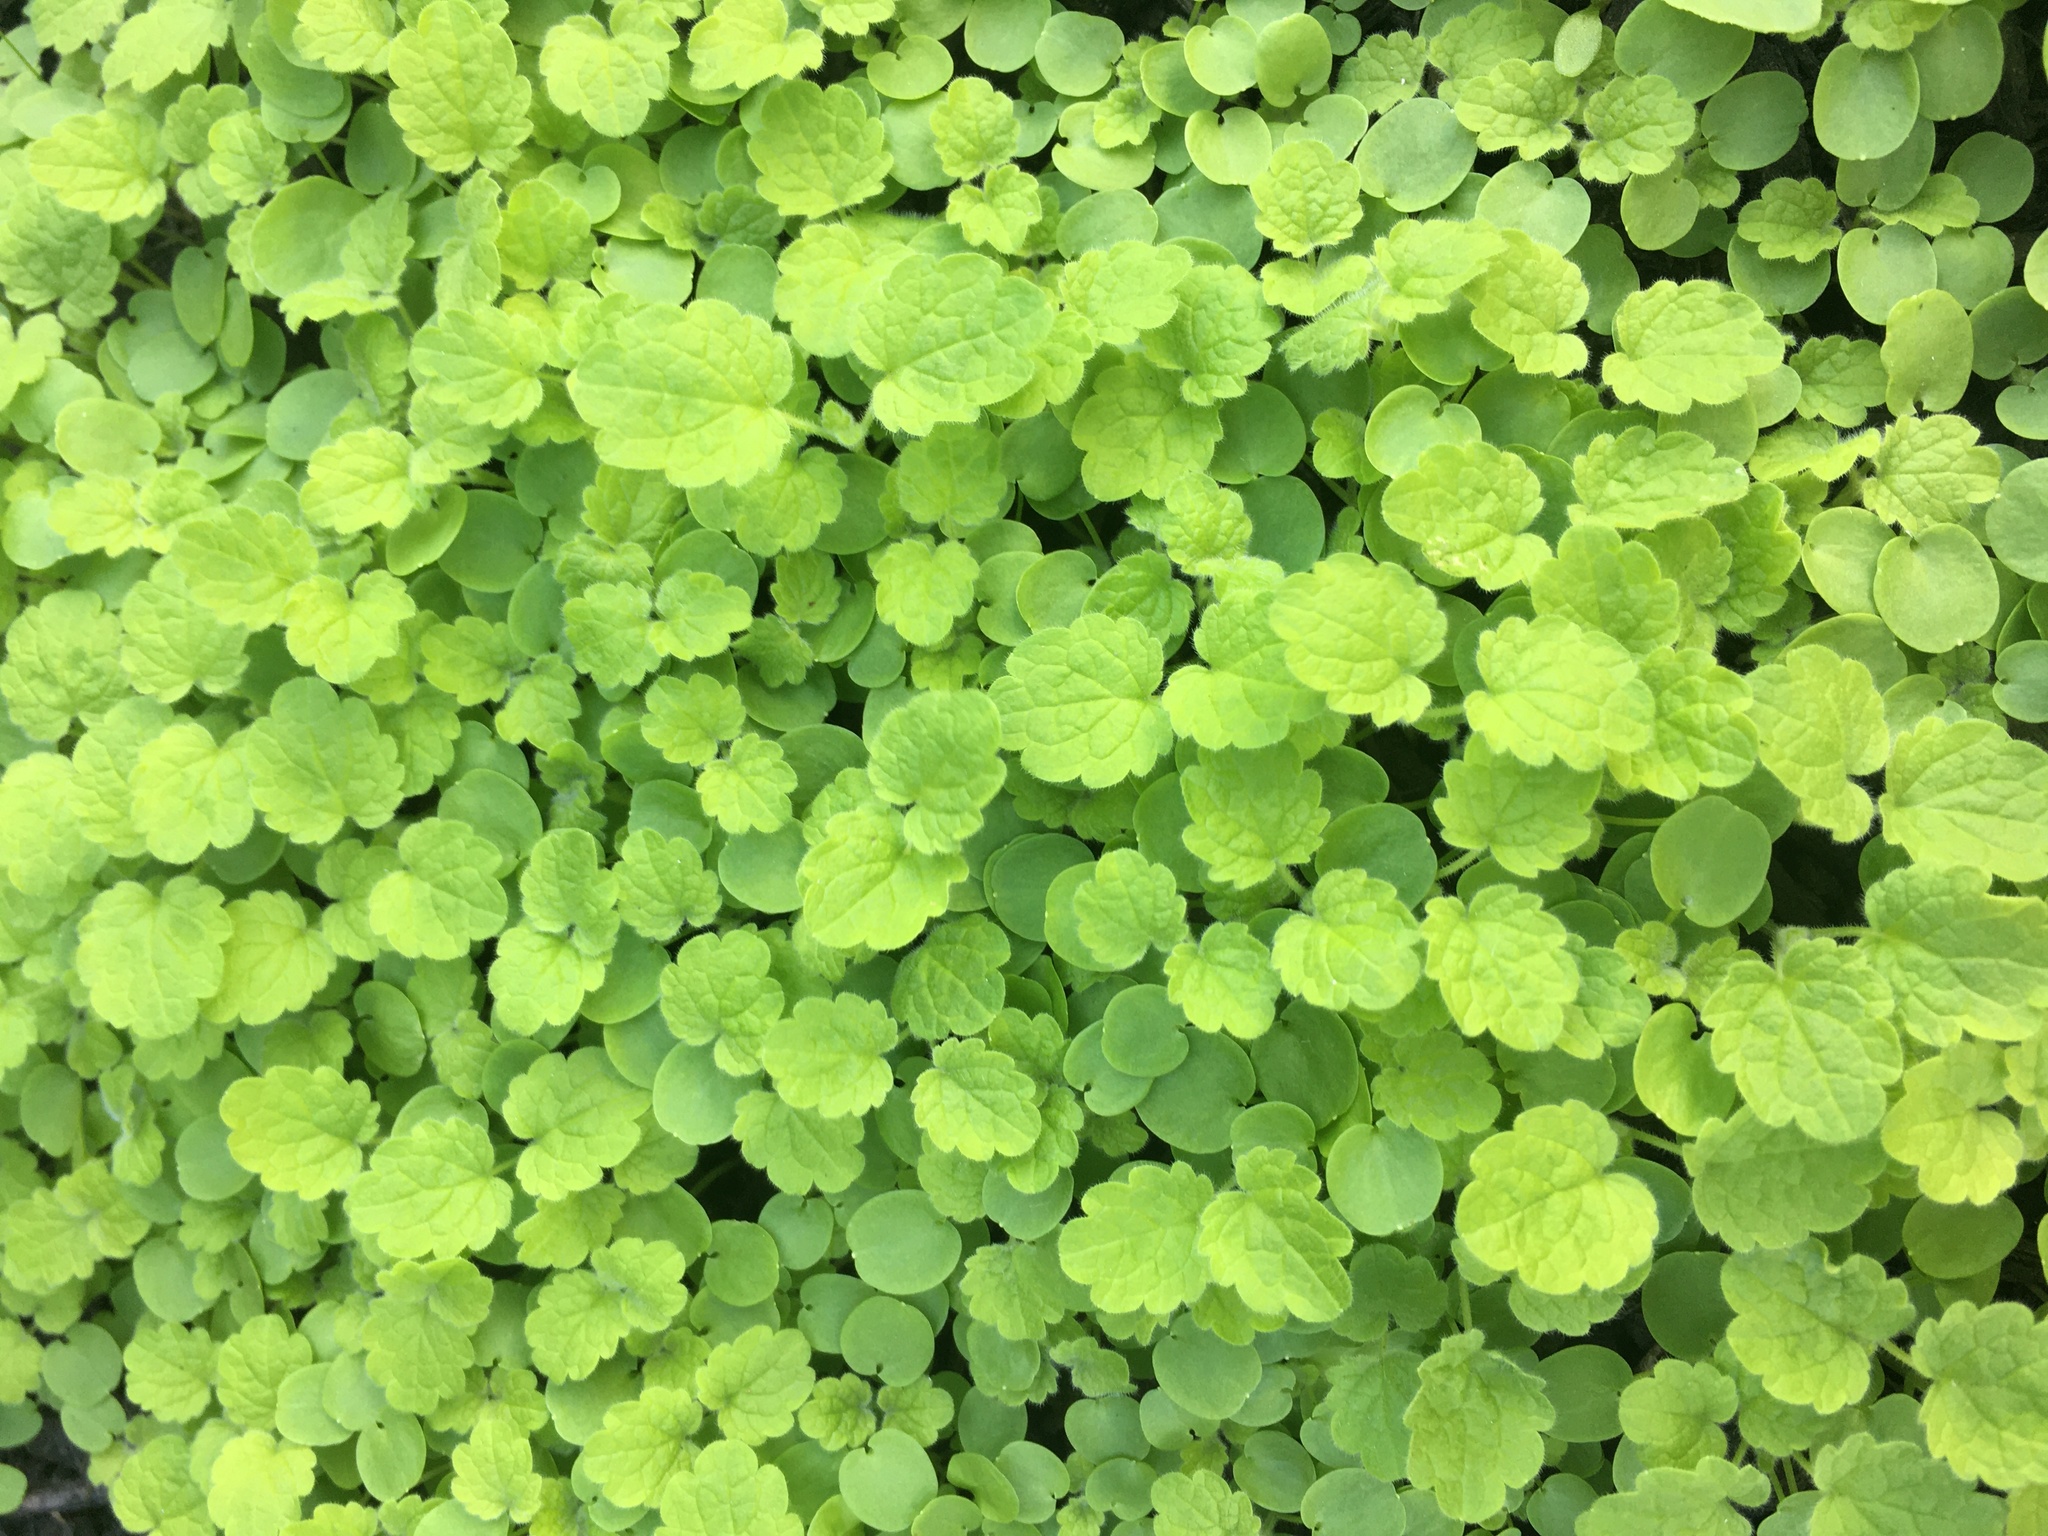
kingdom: Plantae
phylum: Tracheophyta
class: Magnoliopsida
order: Lamiales
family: Lamiaceae
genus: Glechoma
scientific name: Glechoma hederacea
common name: Ground ivy
